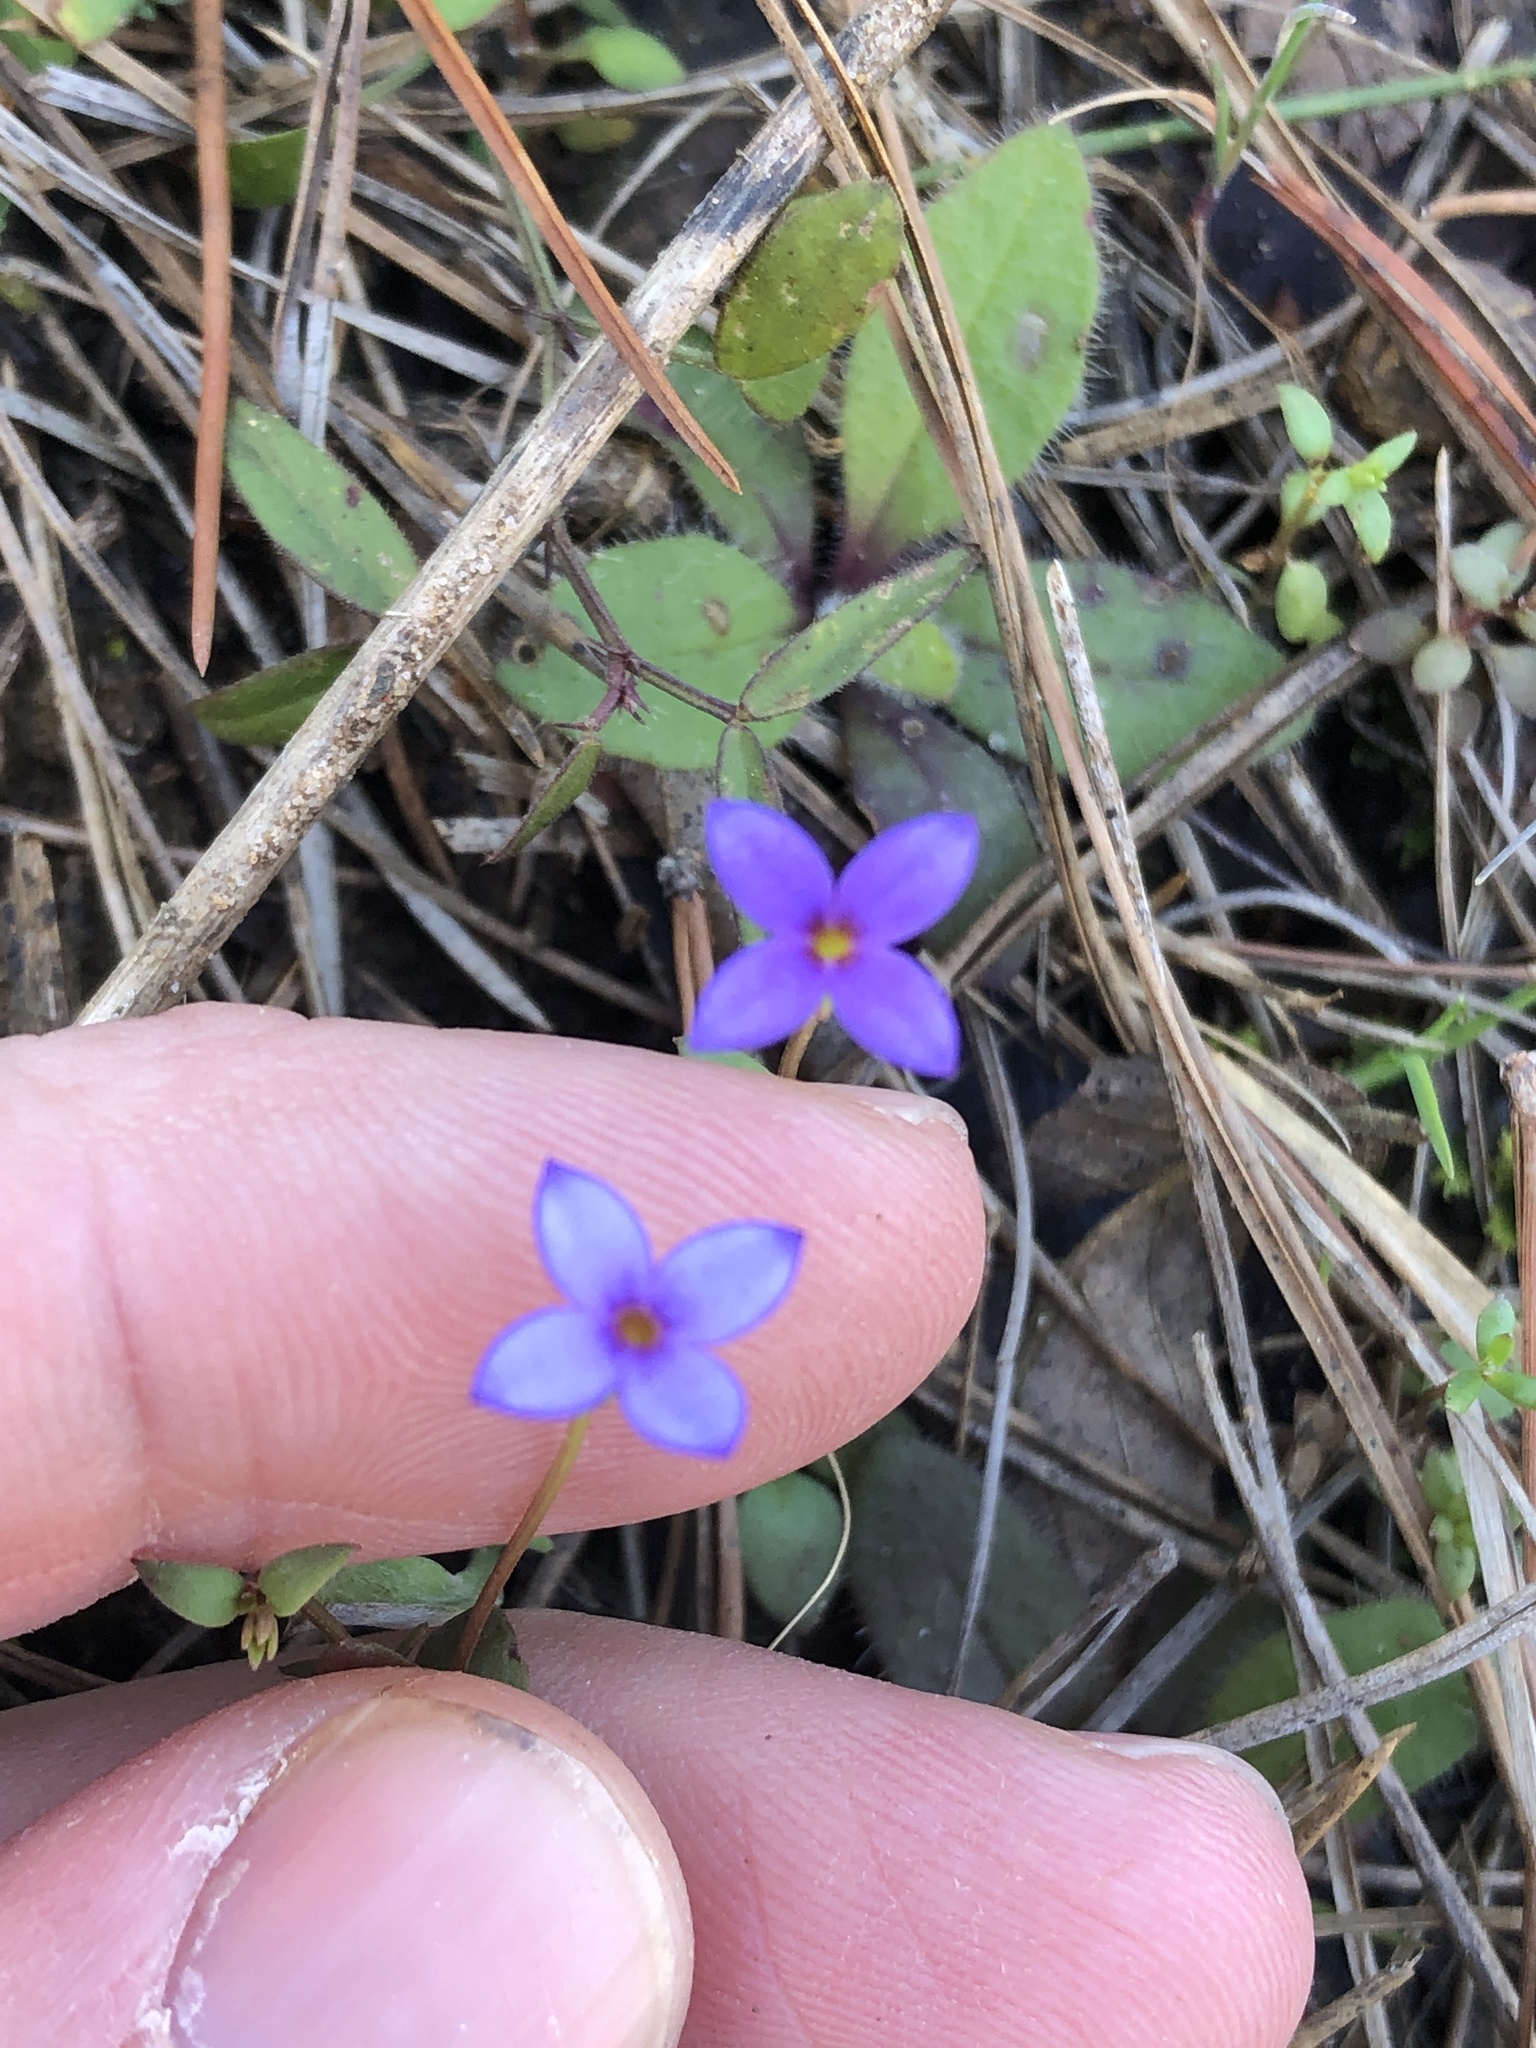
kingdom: Plantae
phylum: Tracheophyta
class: Magnoliopsida
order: Gentianales
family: Rubiaceae
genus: Houstonia
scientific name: Houstonia pusilla
